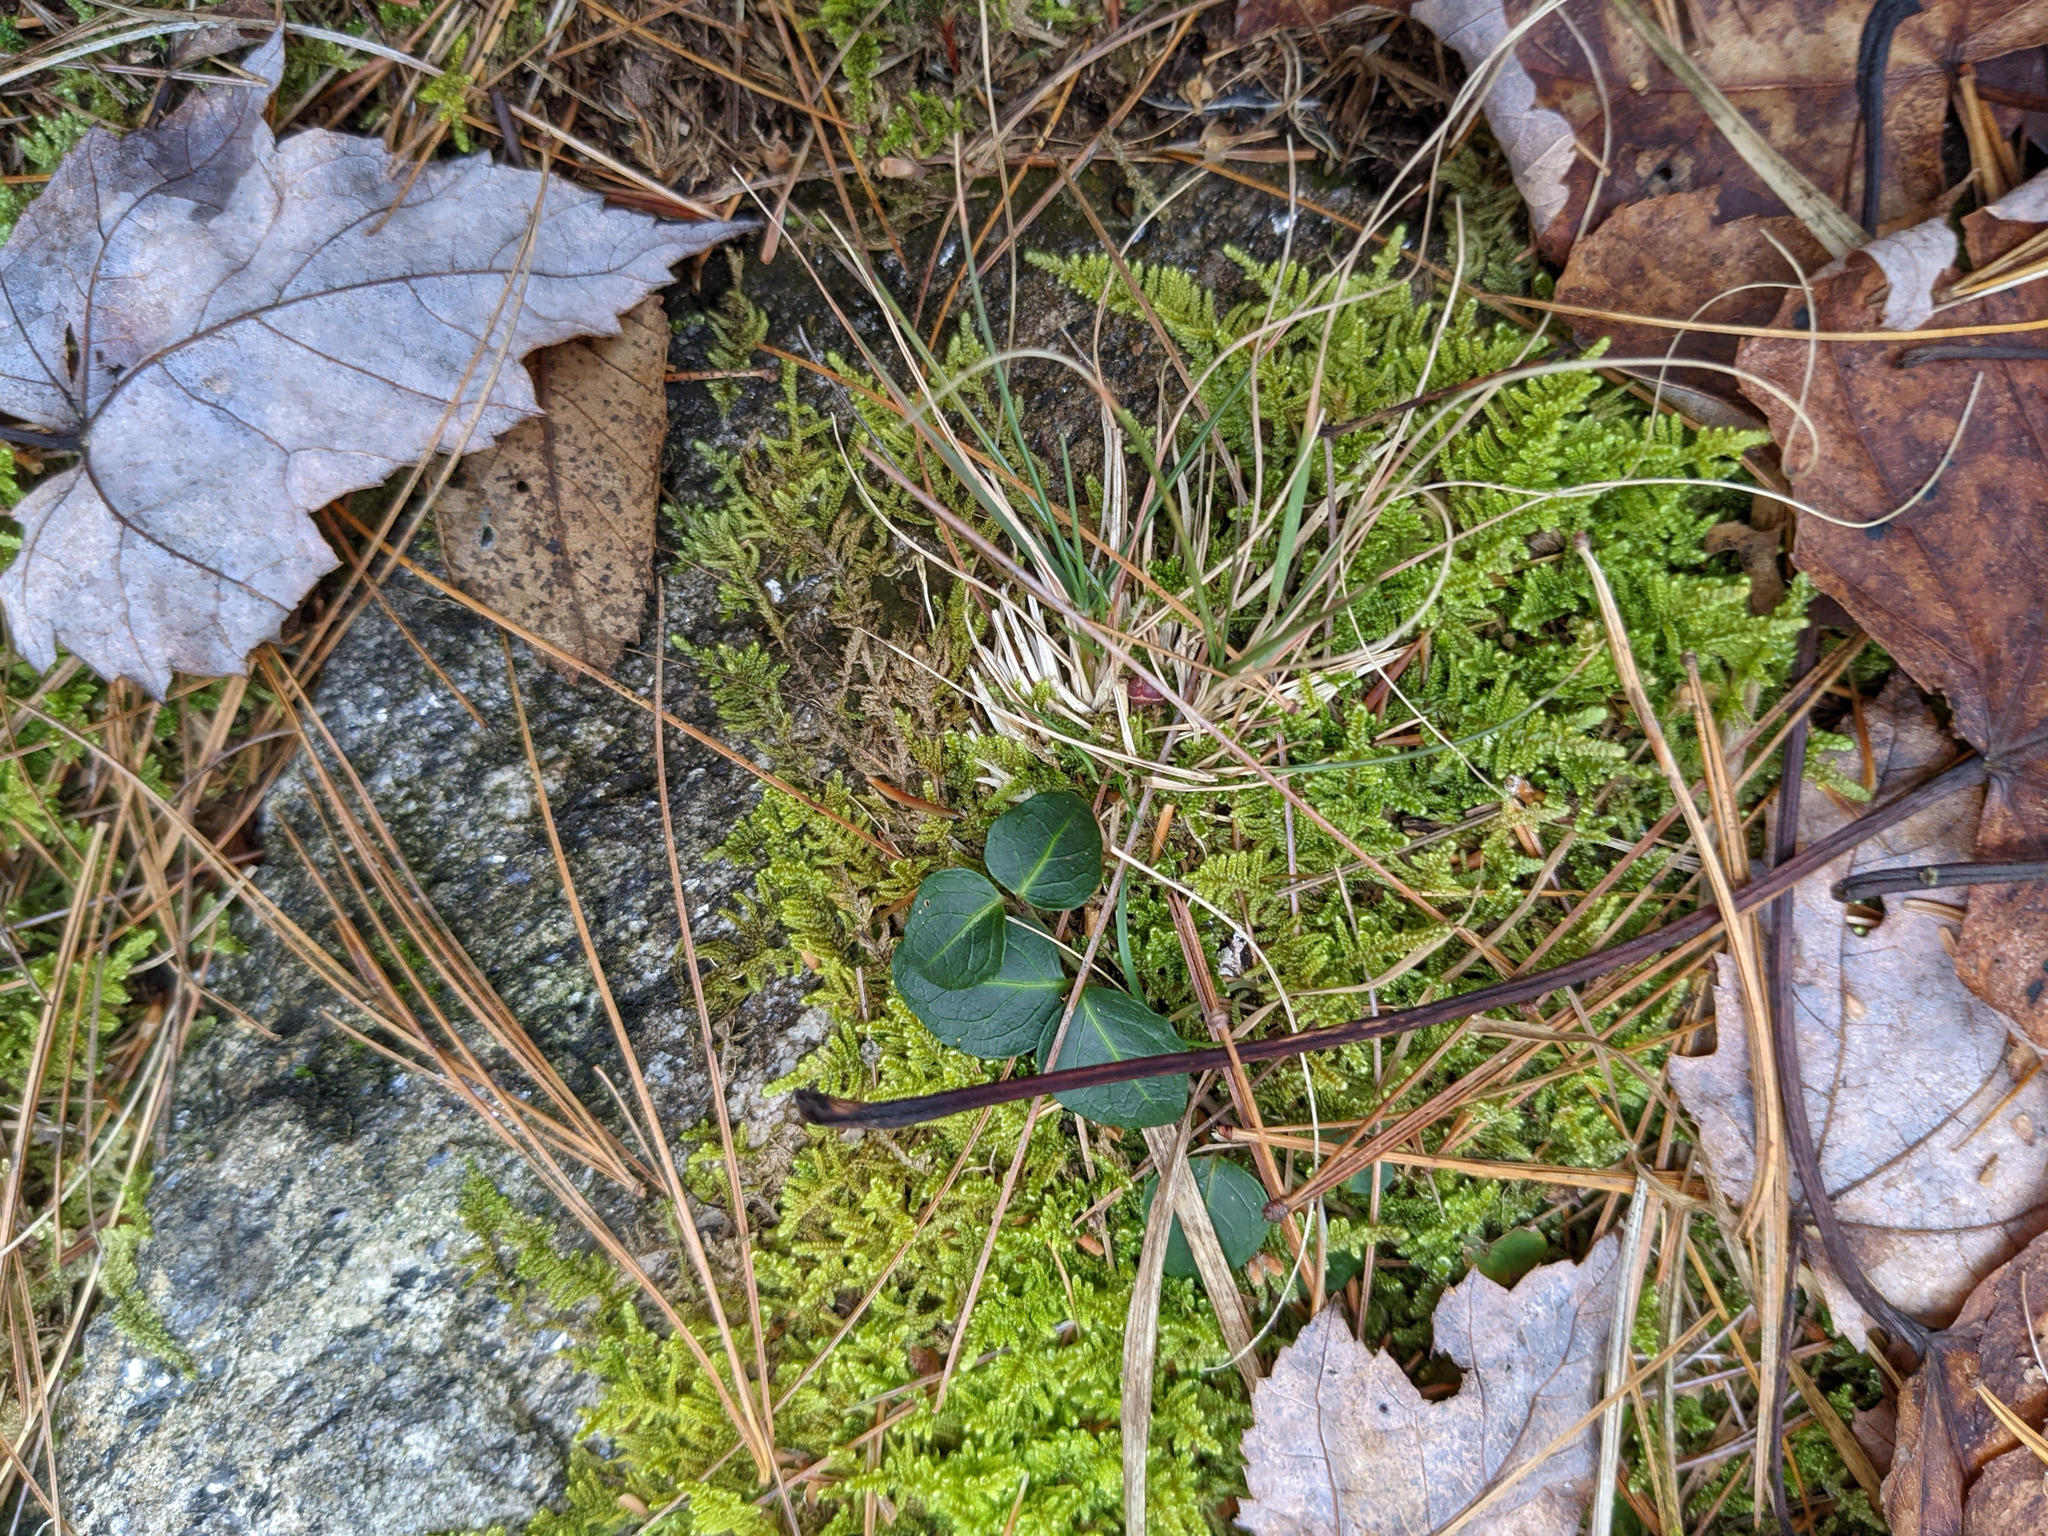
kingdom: Plantae
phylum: Bryophyta
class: Bryopsida
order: Hypnales
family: Callicladiaceae
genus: Callicladium
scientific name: Callicladium imponens
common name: Brocade moss
